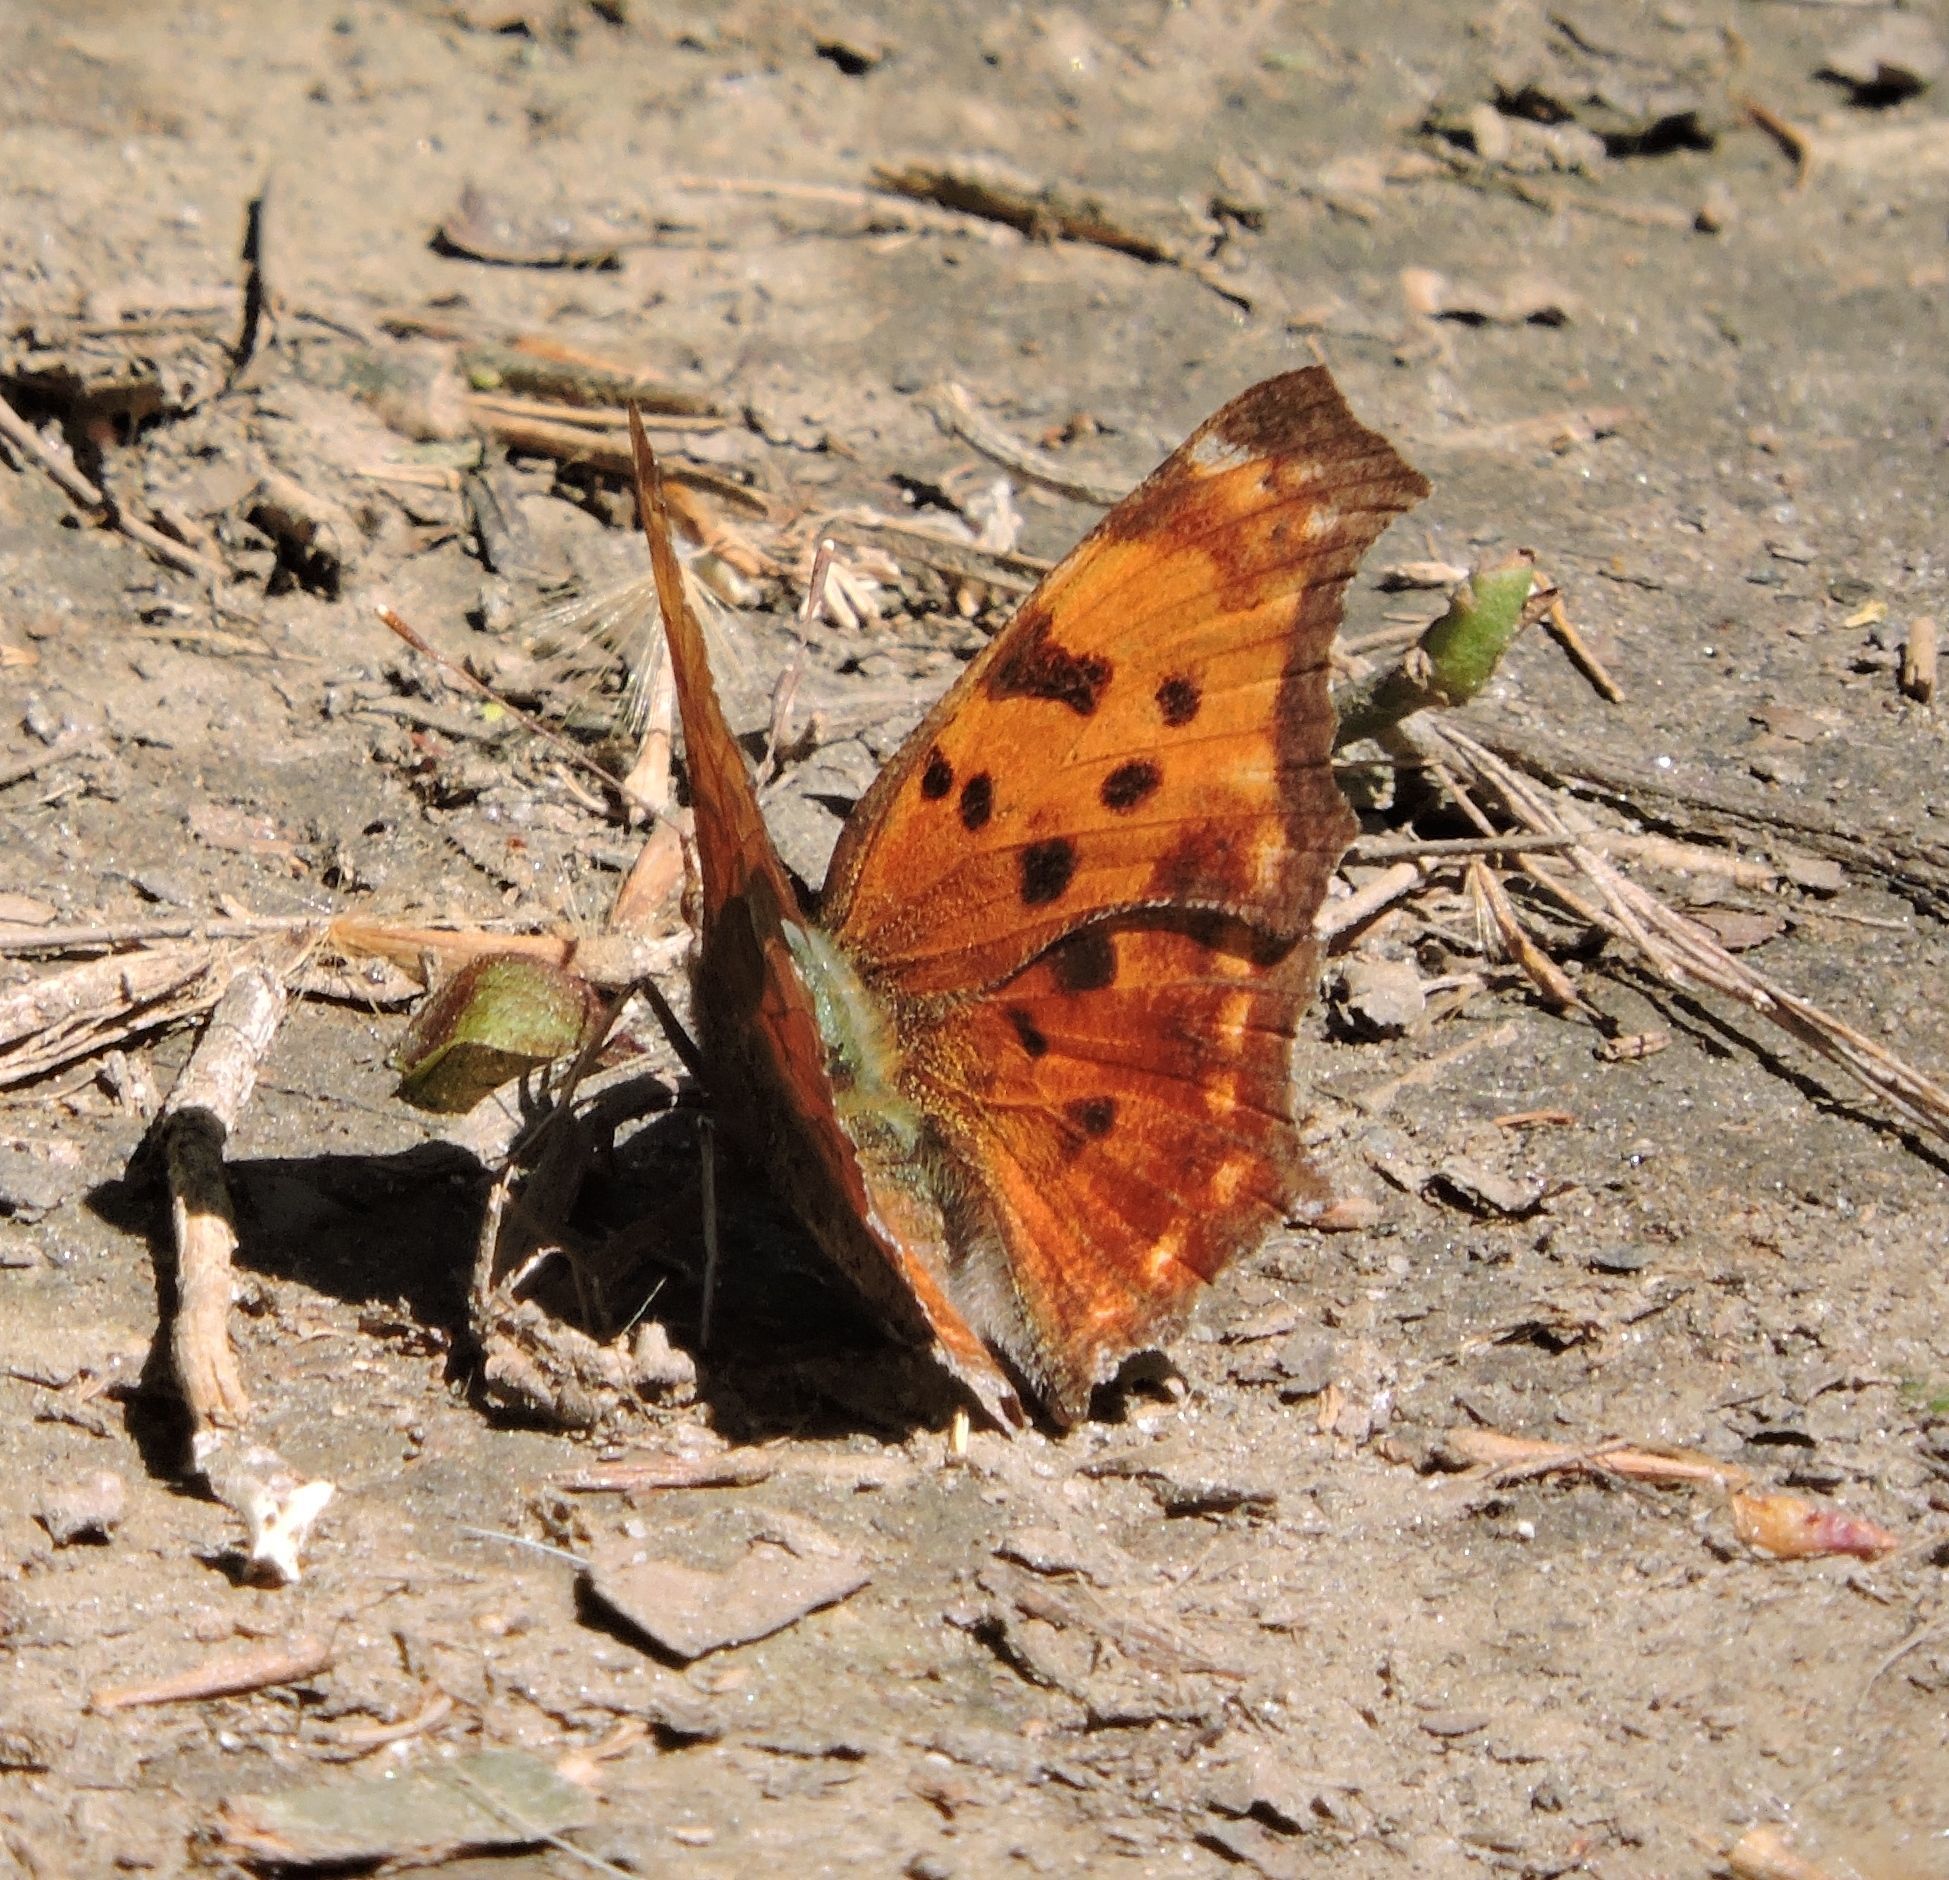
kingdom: Animalia
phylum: Arthropoda
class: Insecta
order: Lepidoptera
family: Nymphalidae
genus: Polygonia
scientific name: Polygonia comma
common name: Eastern comma
